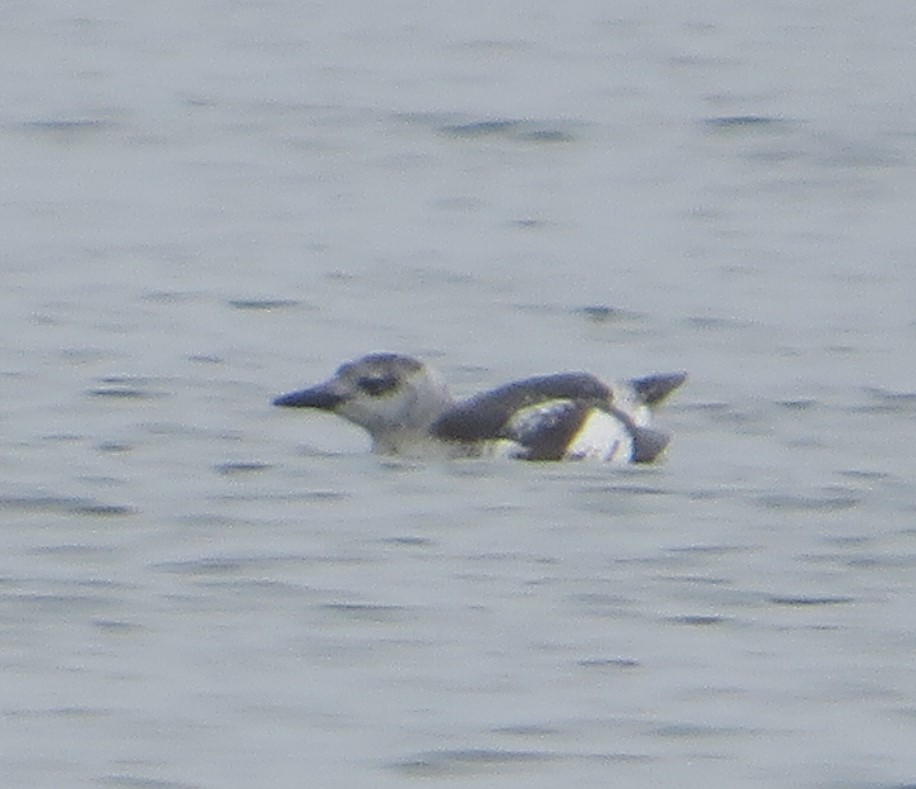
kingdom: Animalia
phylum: Chordata
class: Aves
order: Charadriiformes
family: Alcidae
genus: Cepphus
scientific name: Cepphus grylle
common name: Black guillemot
